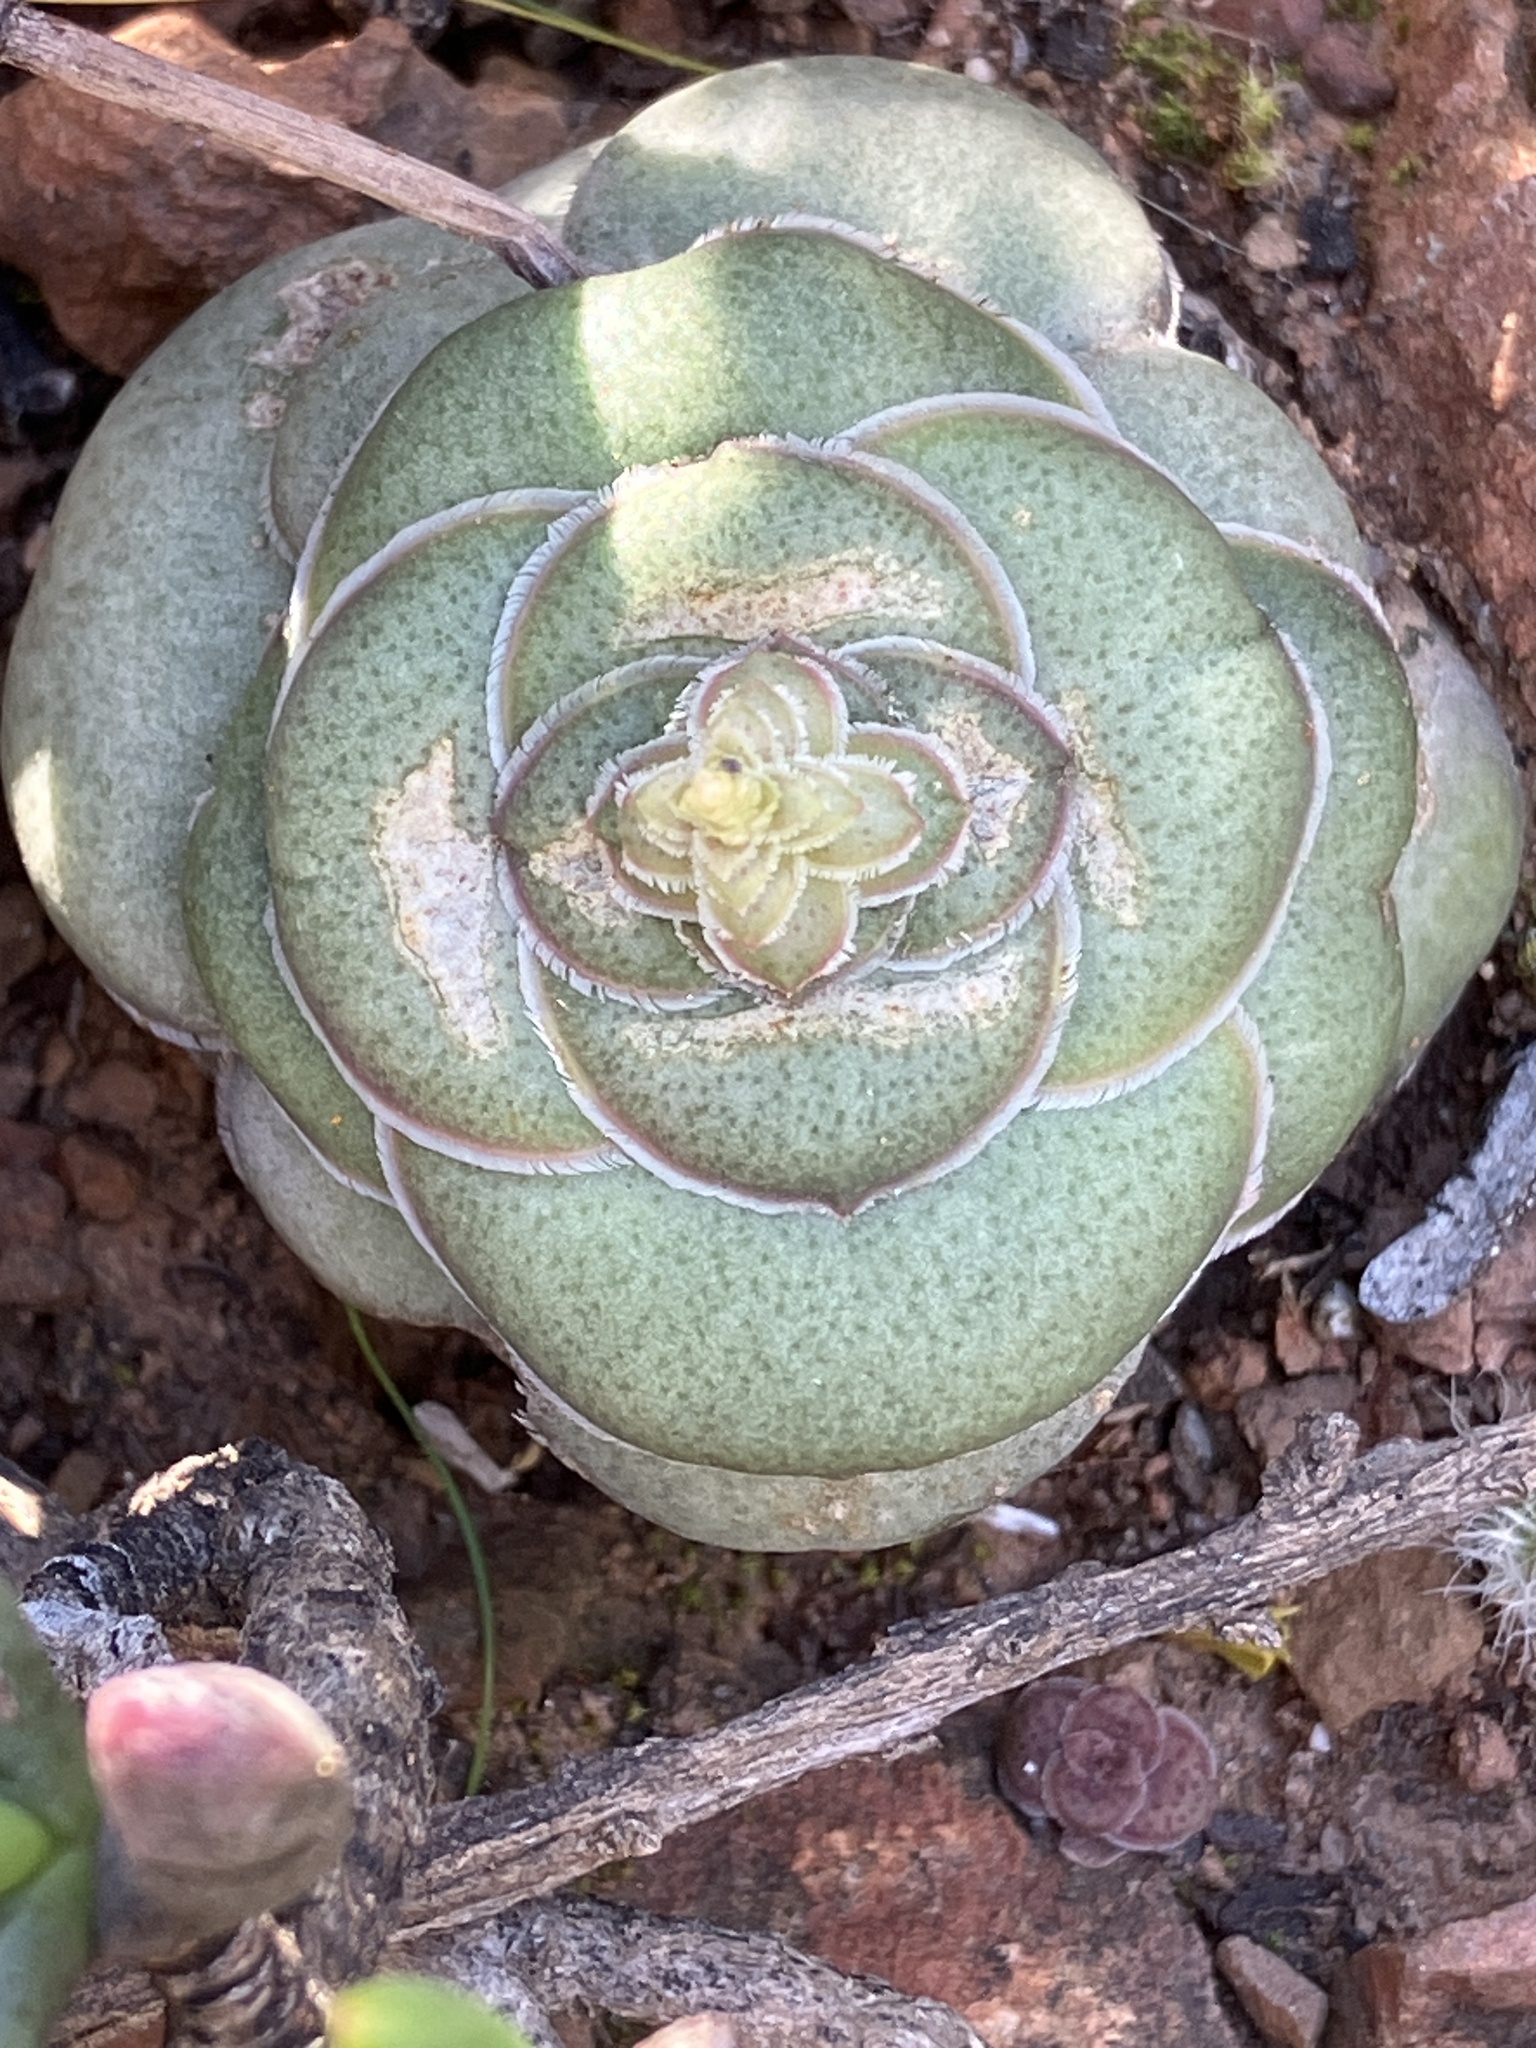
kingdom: Plantae
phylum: Tracheophyta
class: Magnoliopsida
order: Saxifragales
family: Crassulaceae
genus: Crassula
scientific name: Crassula hemisphaerica
